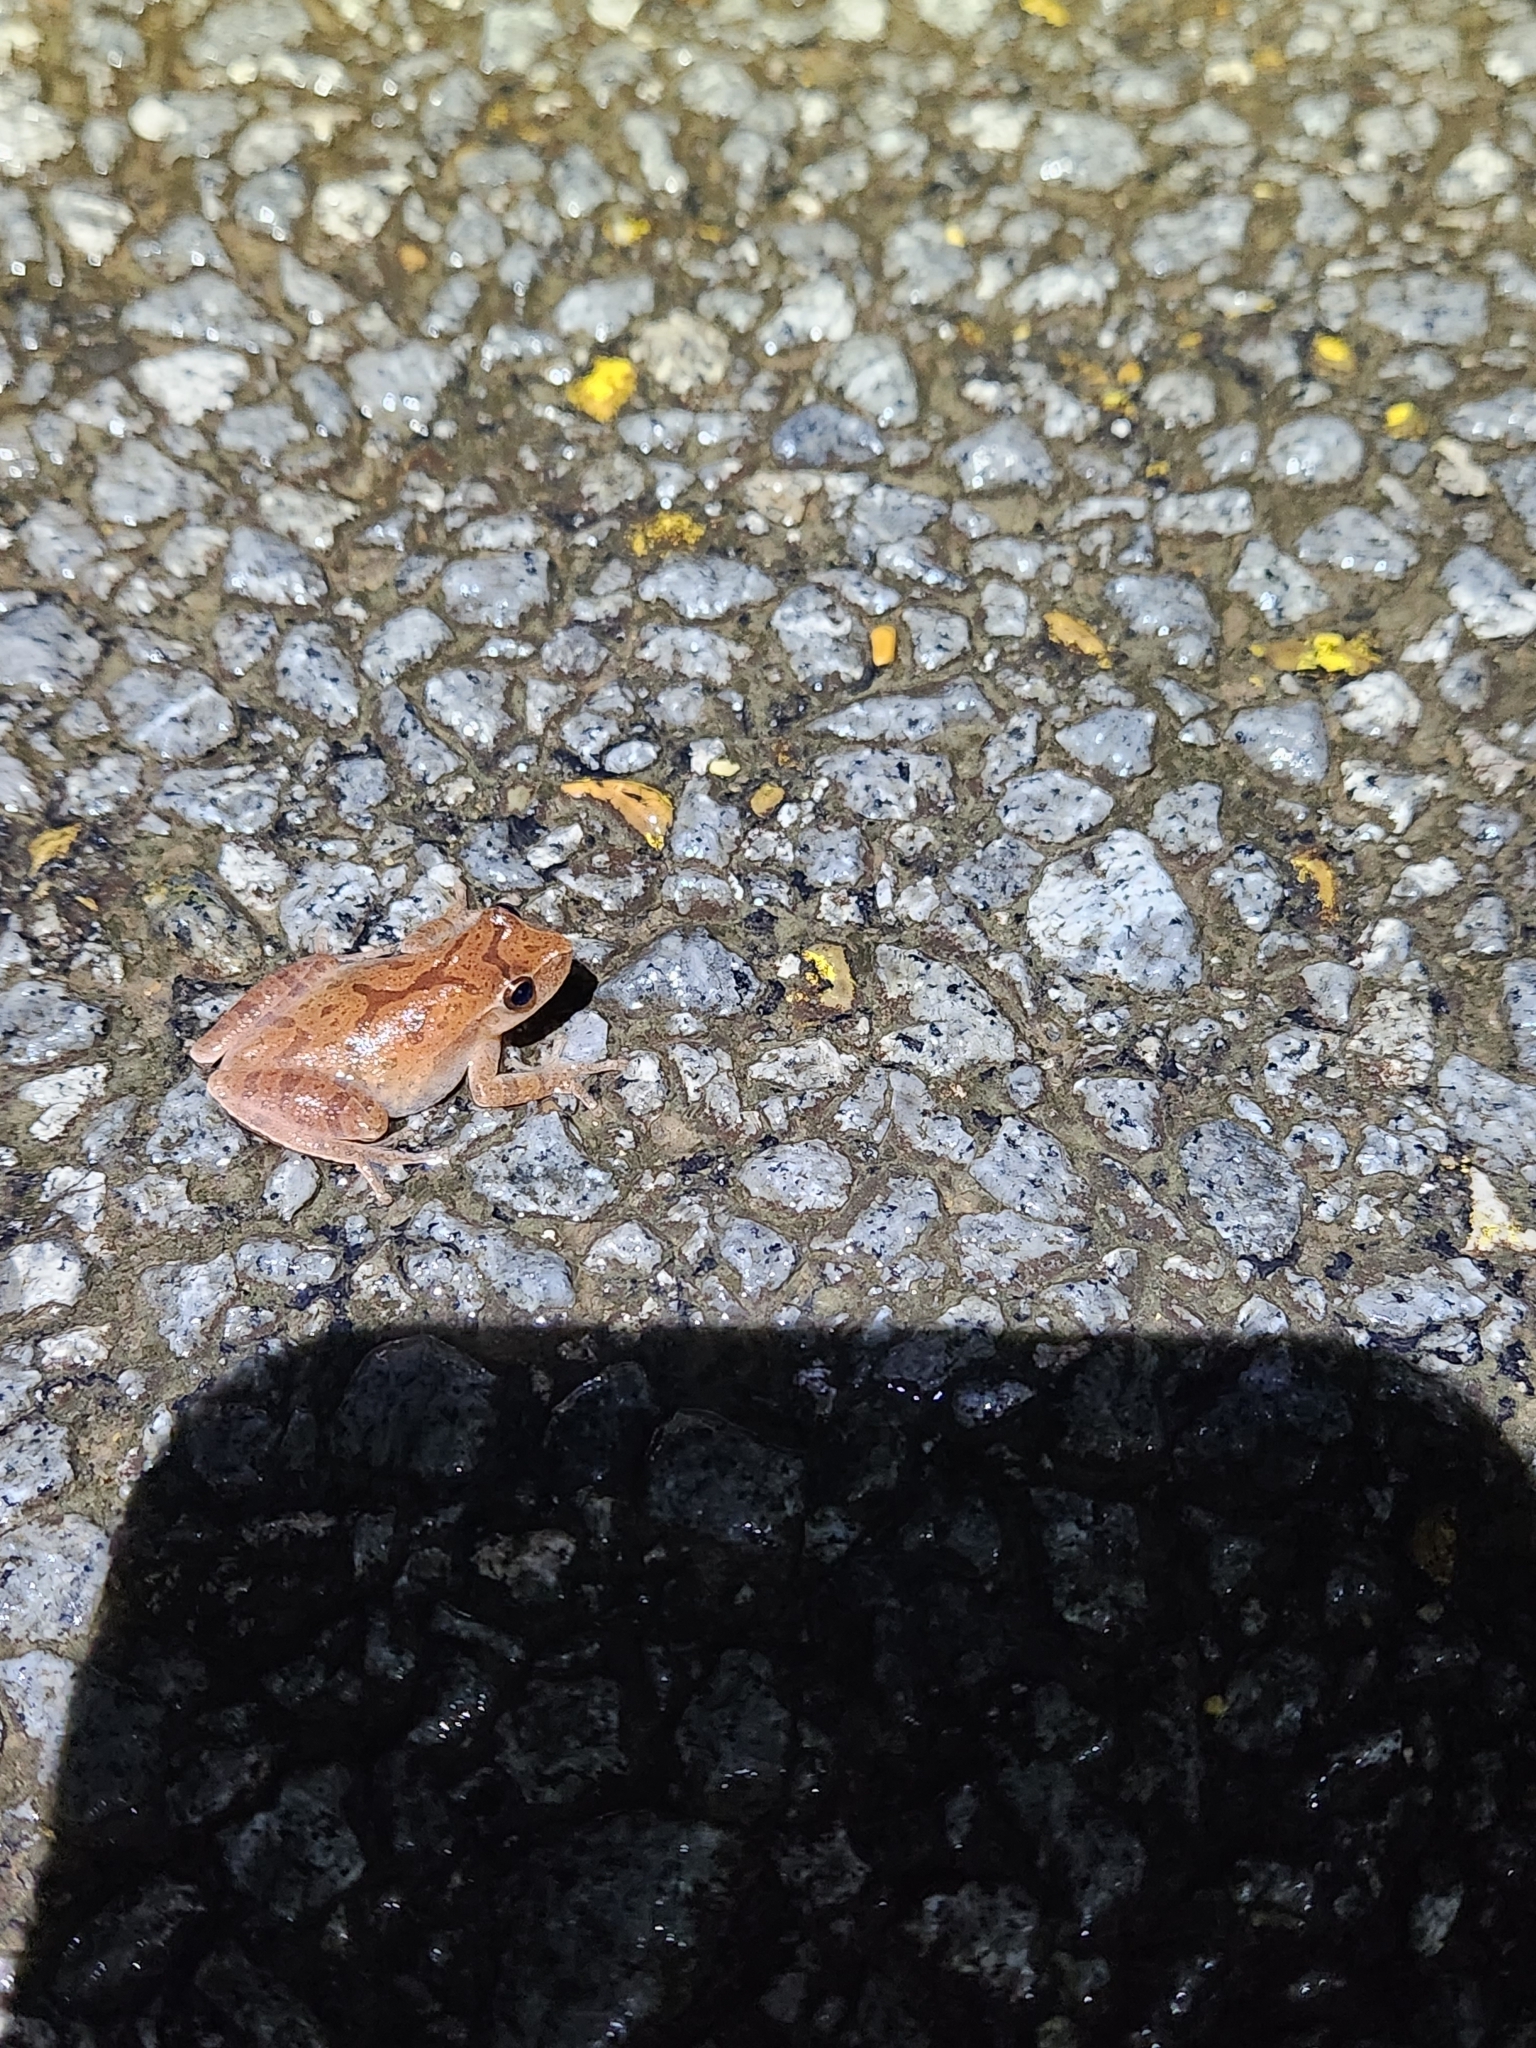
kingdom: Animalia
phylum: Chordata
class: Amphibia
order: Anura
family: Hylidae
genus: Pseudacris
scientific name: Pseudacris crucifer
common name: Spring peeper
